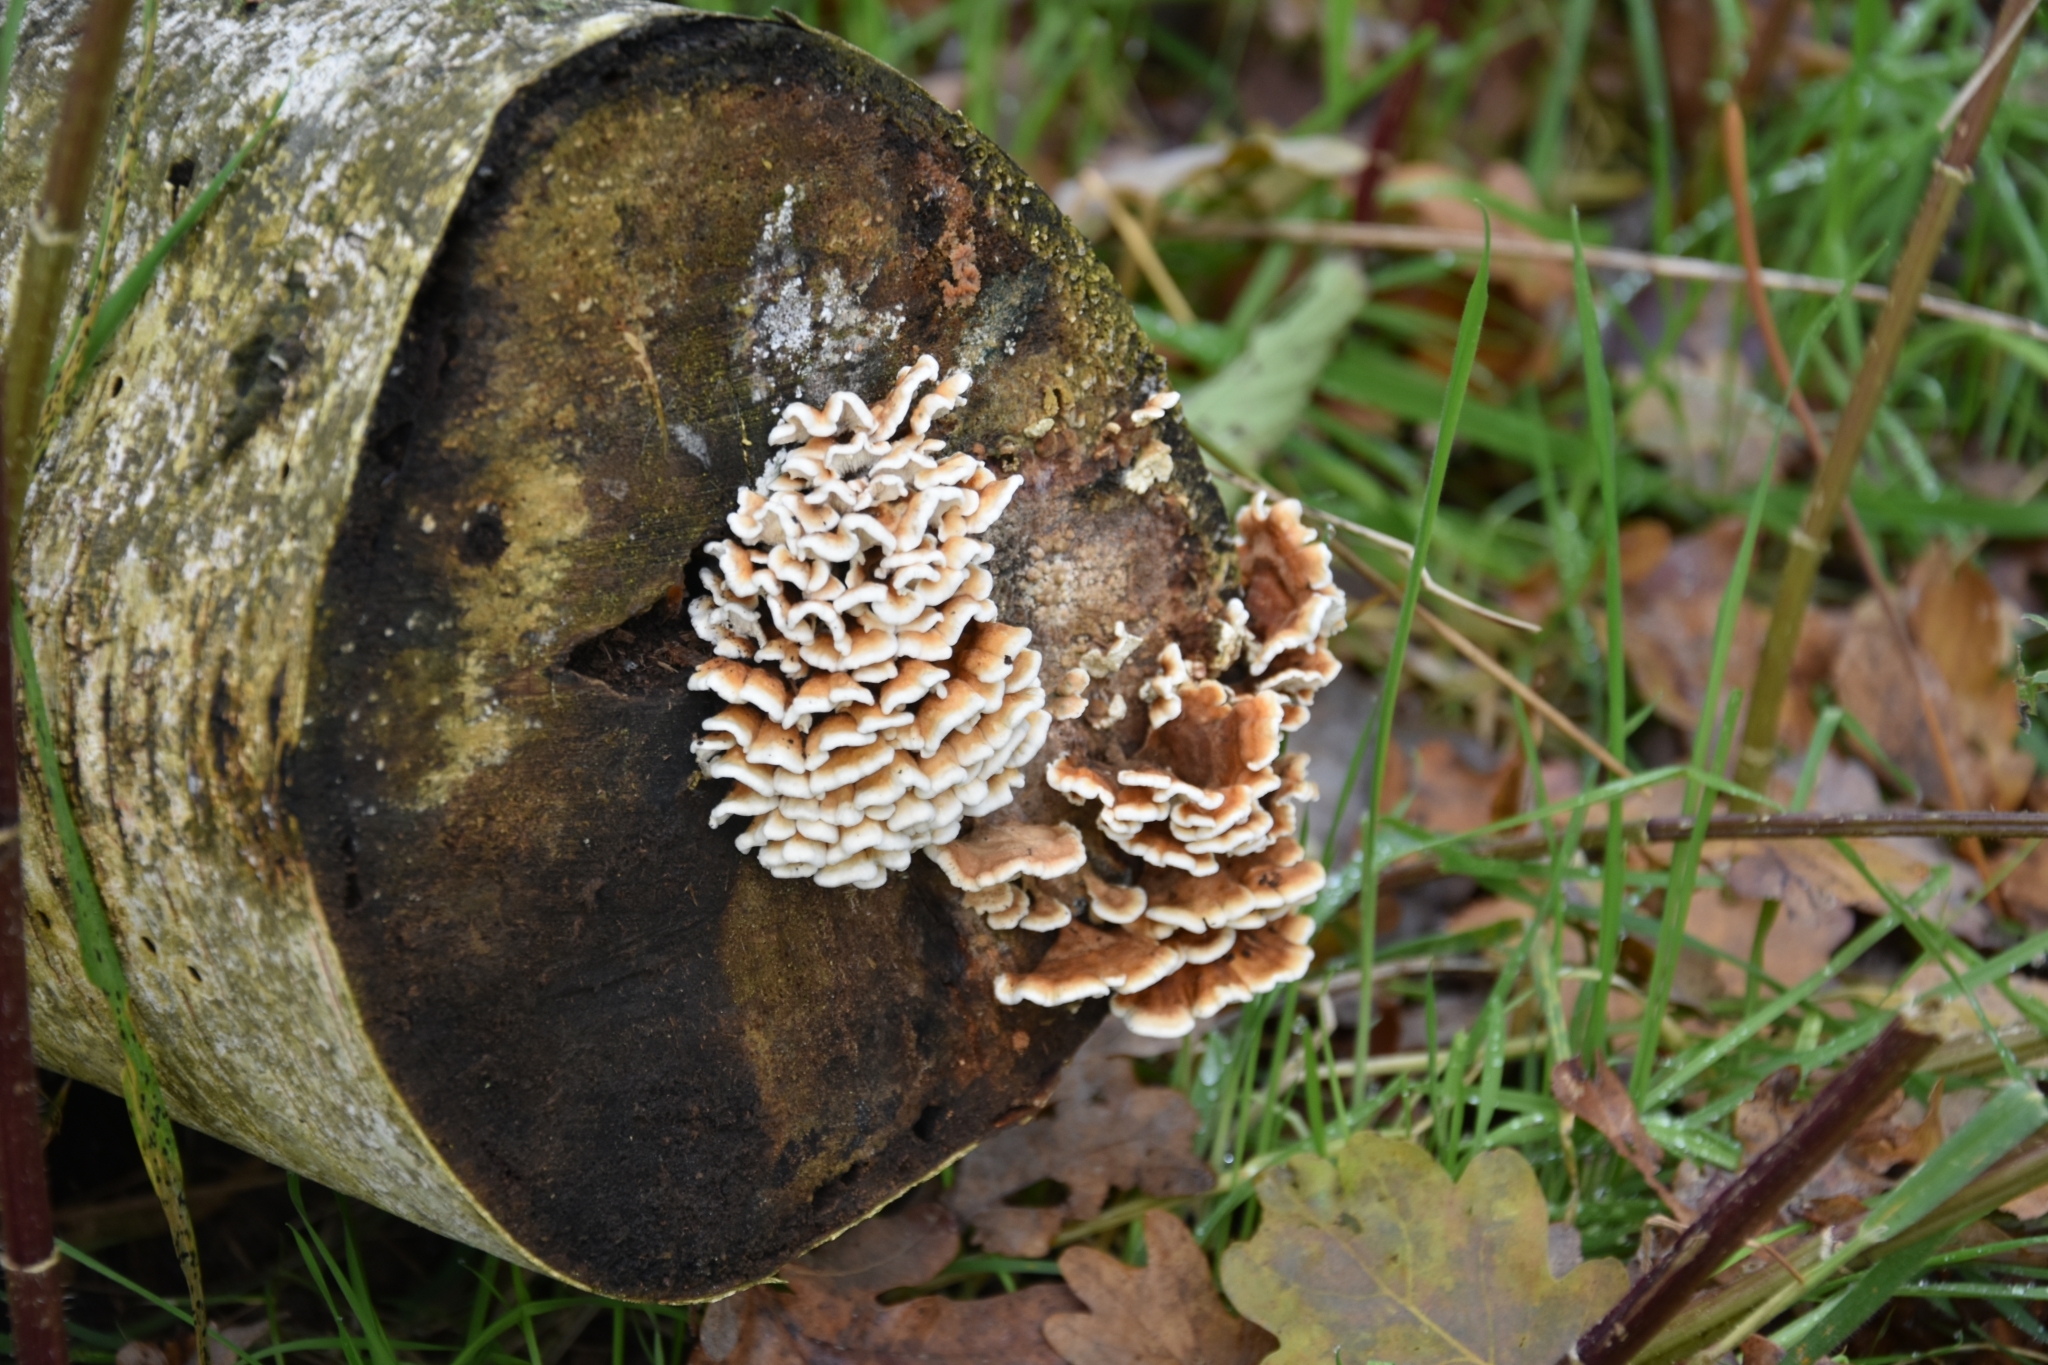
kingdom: Fungi
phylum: Basidiomycota
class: Agaricomycetes
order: Amylocorticiales
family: Amylocorticiaceae
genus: Plicaturopsis
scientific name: Plicaturopsis crispa
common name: Crimped gill
